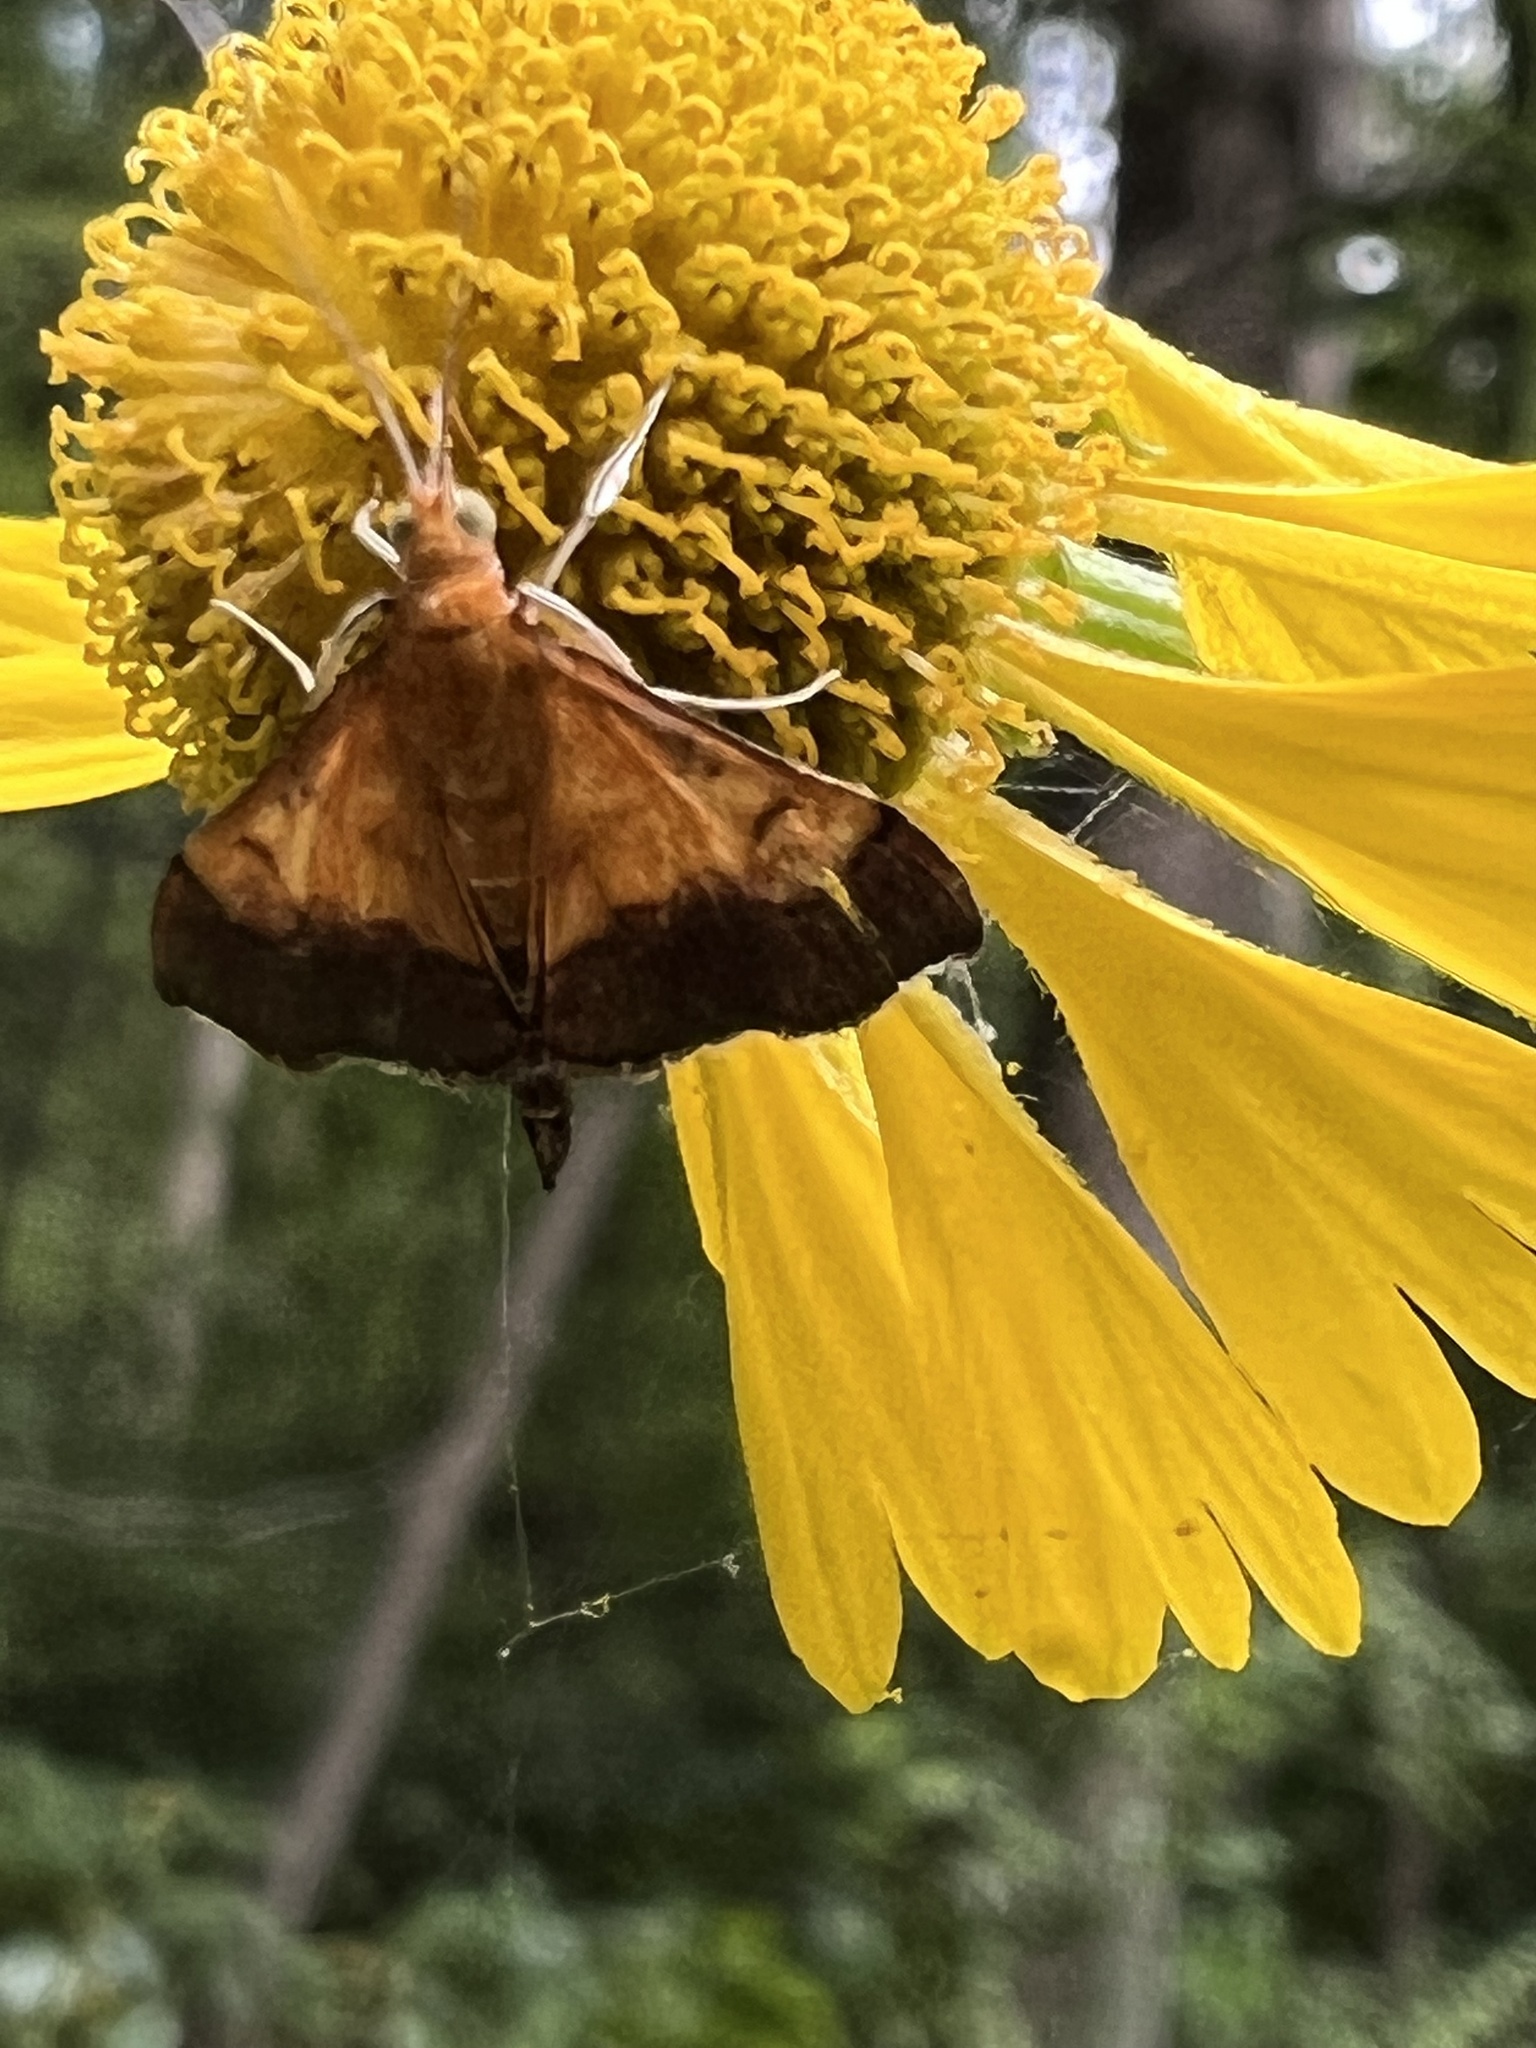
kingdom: Animalia
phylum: Arthropoda
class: Insecta
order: Lepidoptera
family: Crambidae
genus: Pyrausta
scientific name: Pyrausta bicoloralis
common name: Bicolored pyrausta moth
